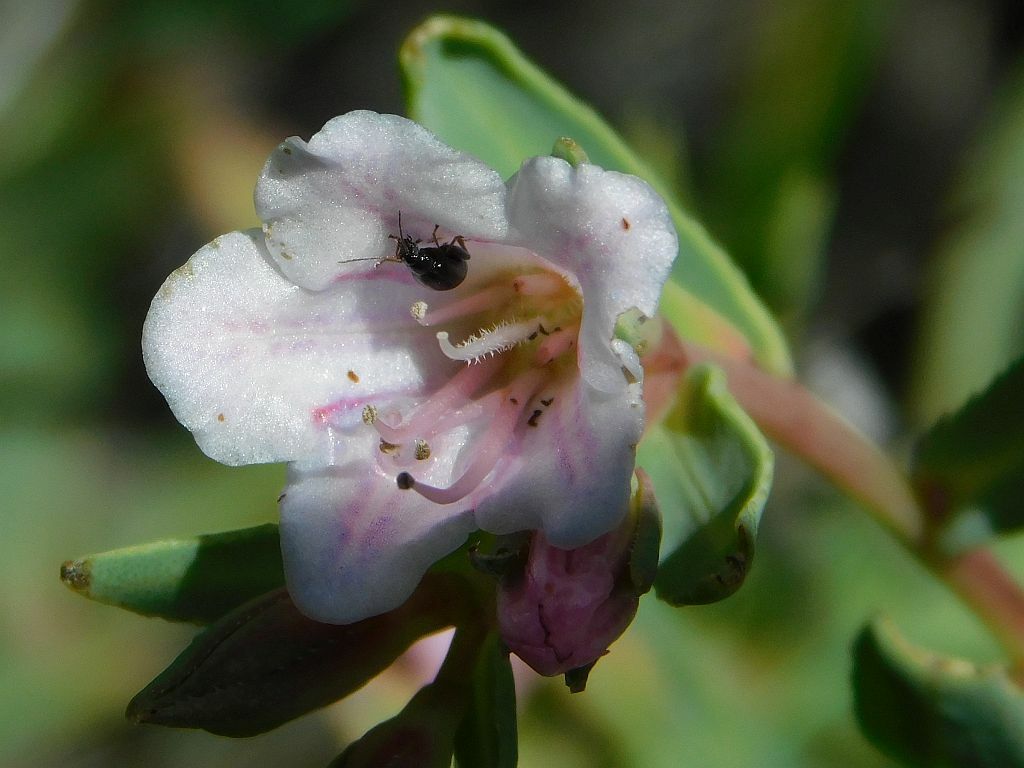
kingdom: Plantae
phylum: Tracheophyta
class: Magnoliopsida
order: Boraginales
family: Boraginaceae
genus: Lobostemon
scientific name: Lobostemon glaucophyllus
